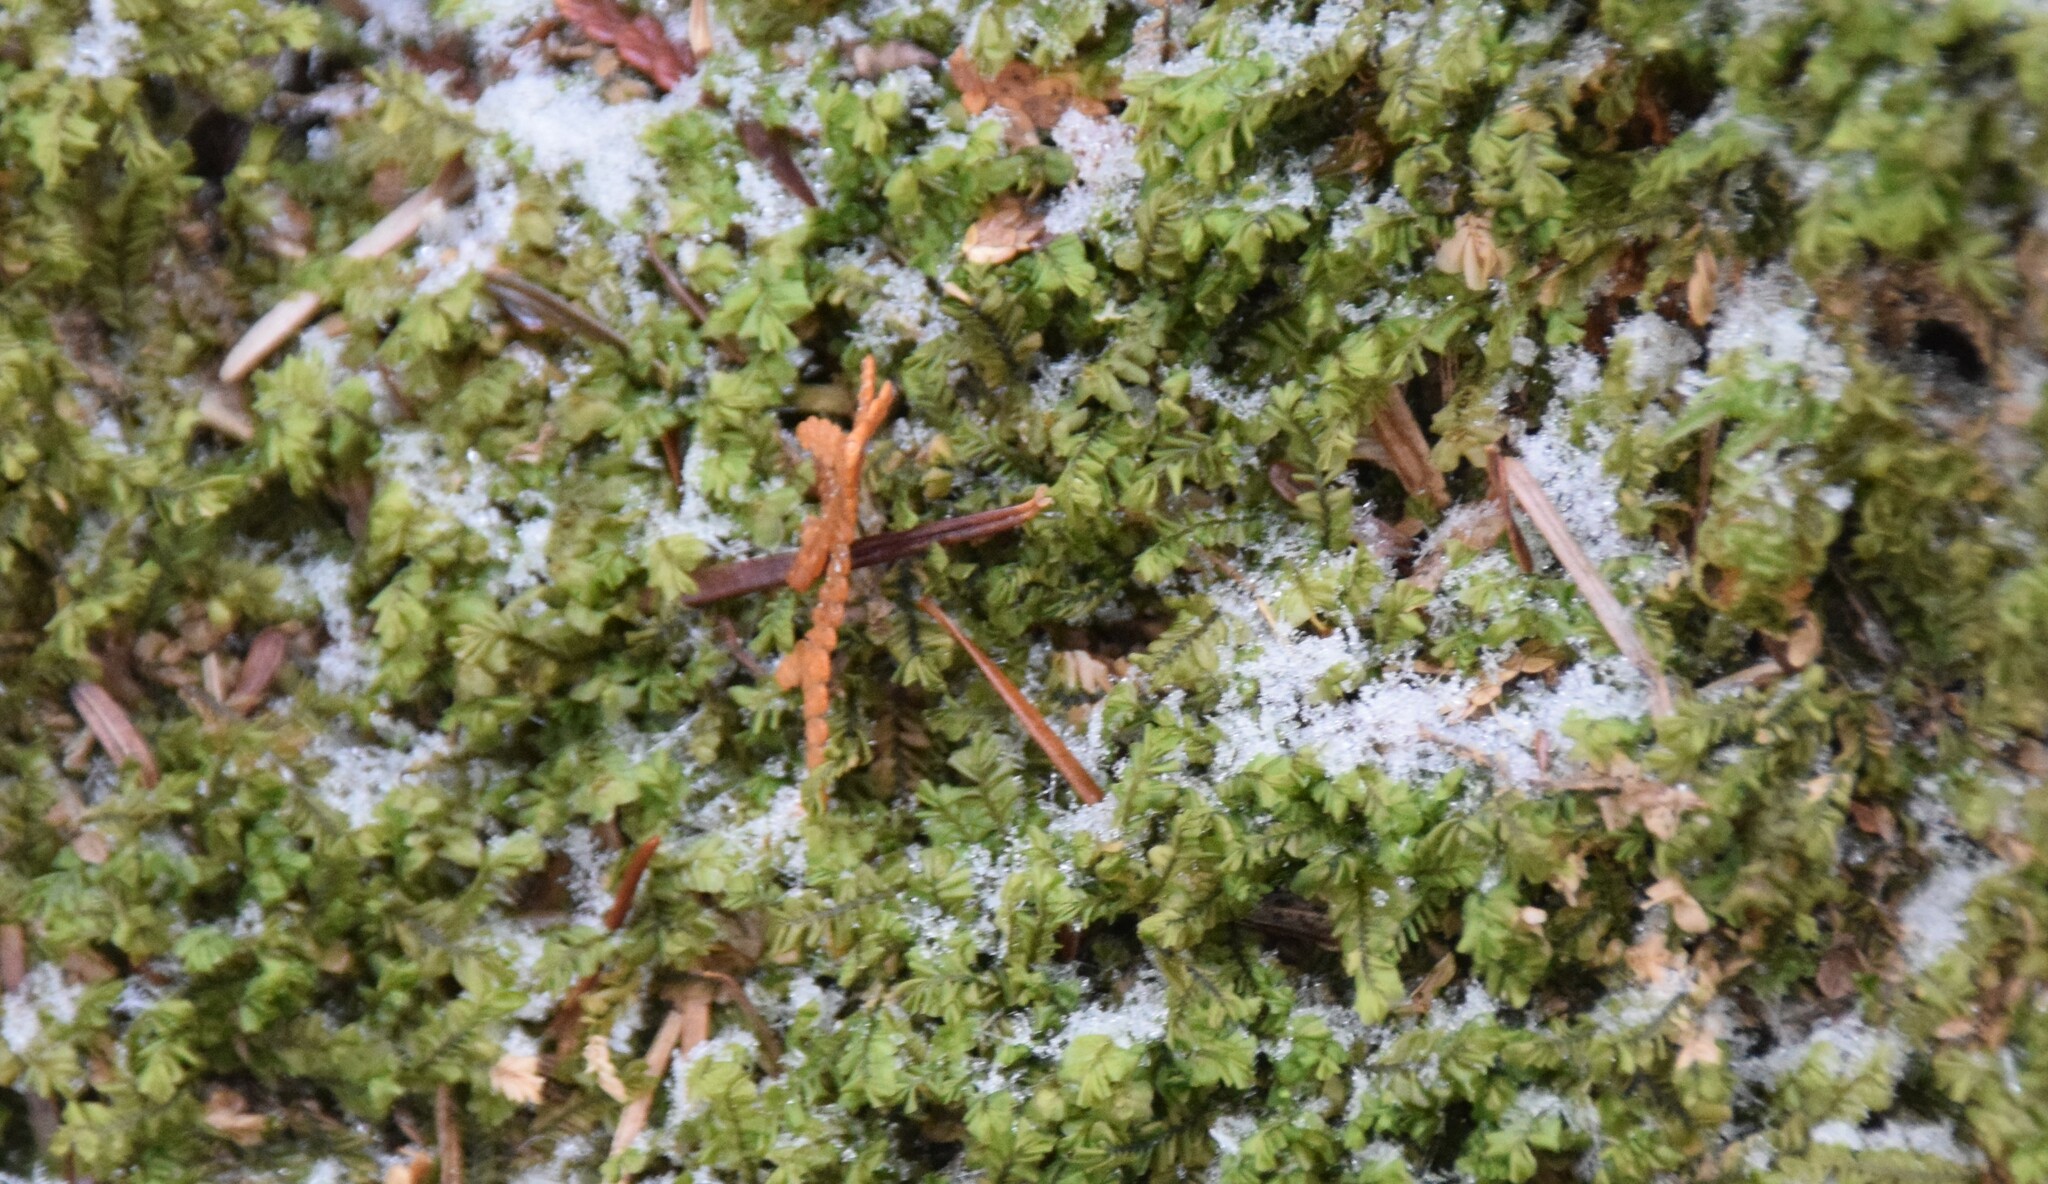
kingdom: Plantae
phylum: Marchantiophyta
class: Jungermanniopsida
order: Jungermanniales
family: Plagiochilaceae
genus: Plagiochila
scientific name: Plagiochila porelloides
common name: Lesser featherwort
